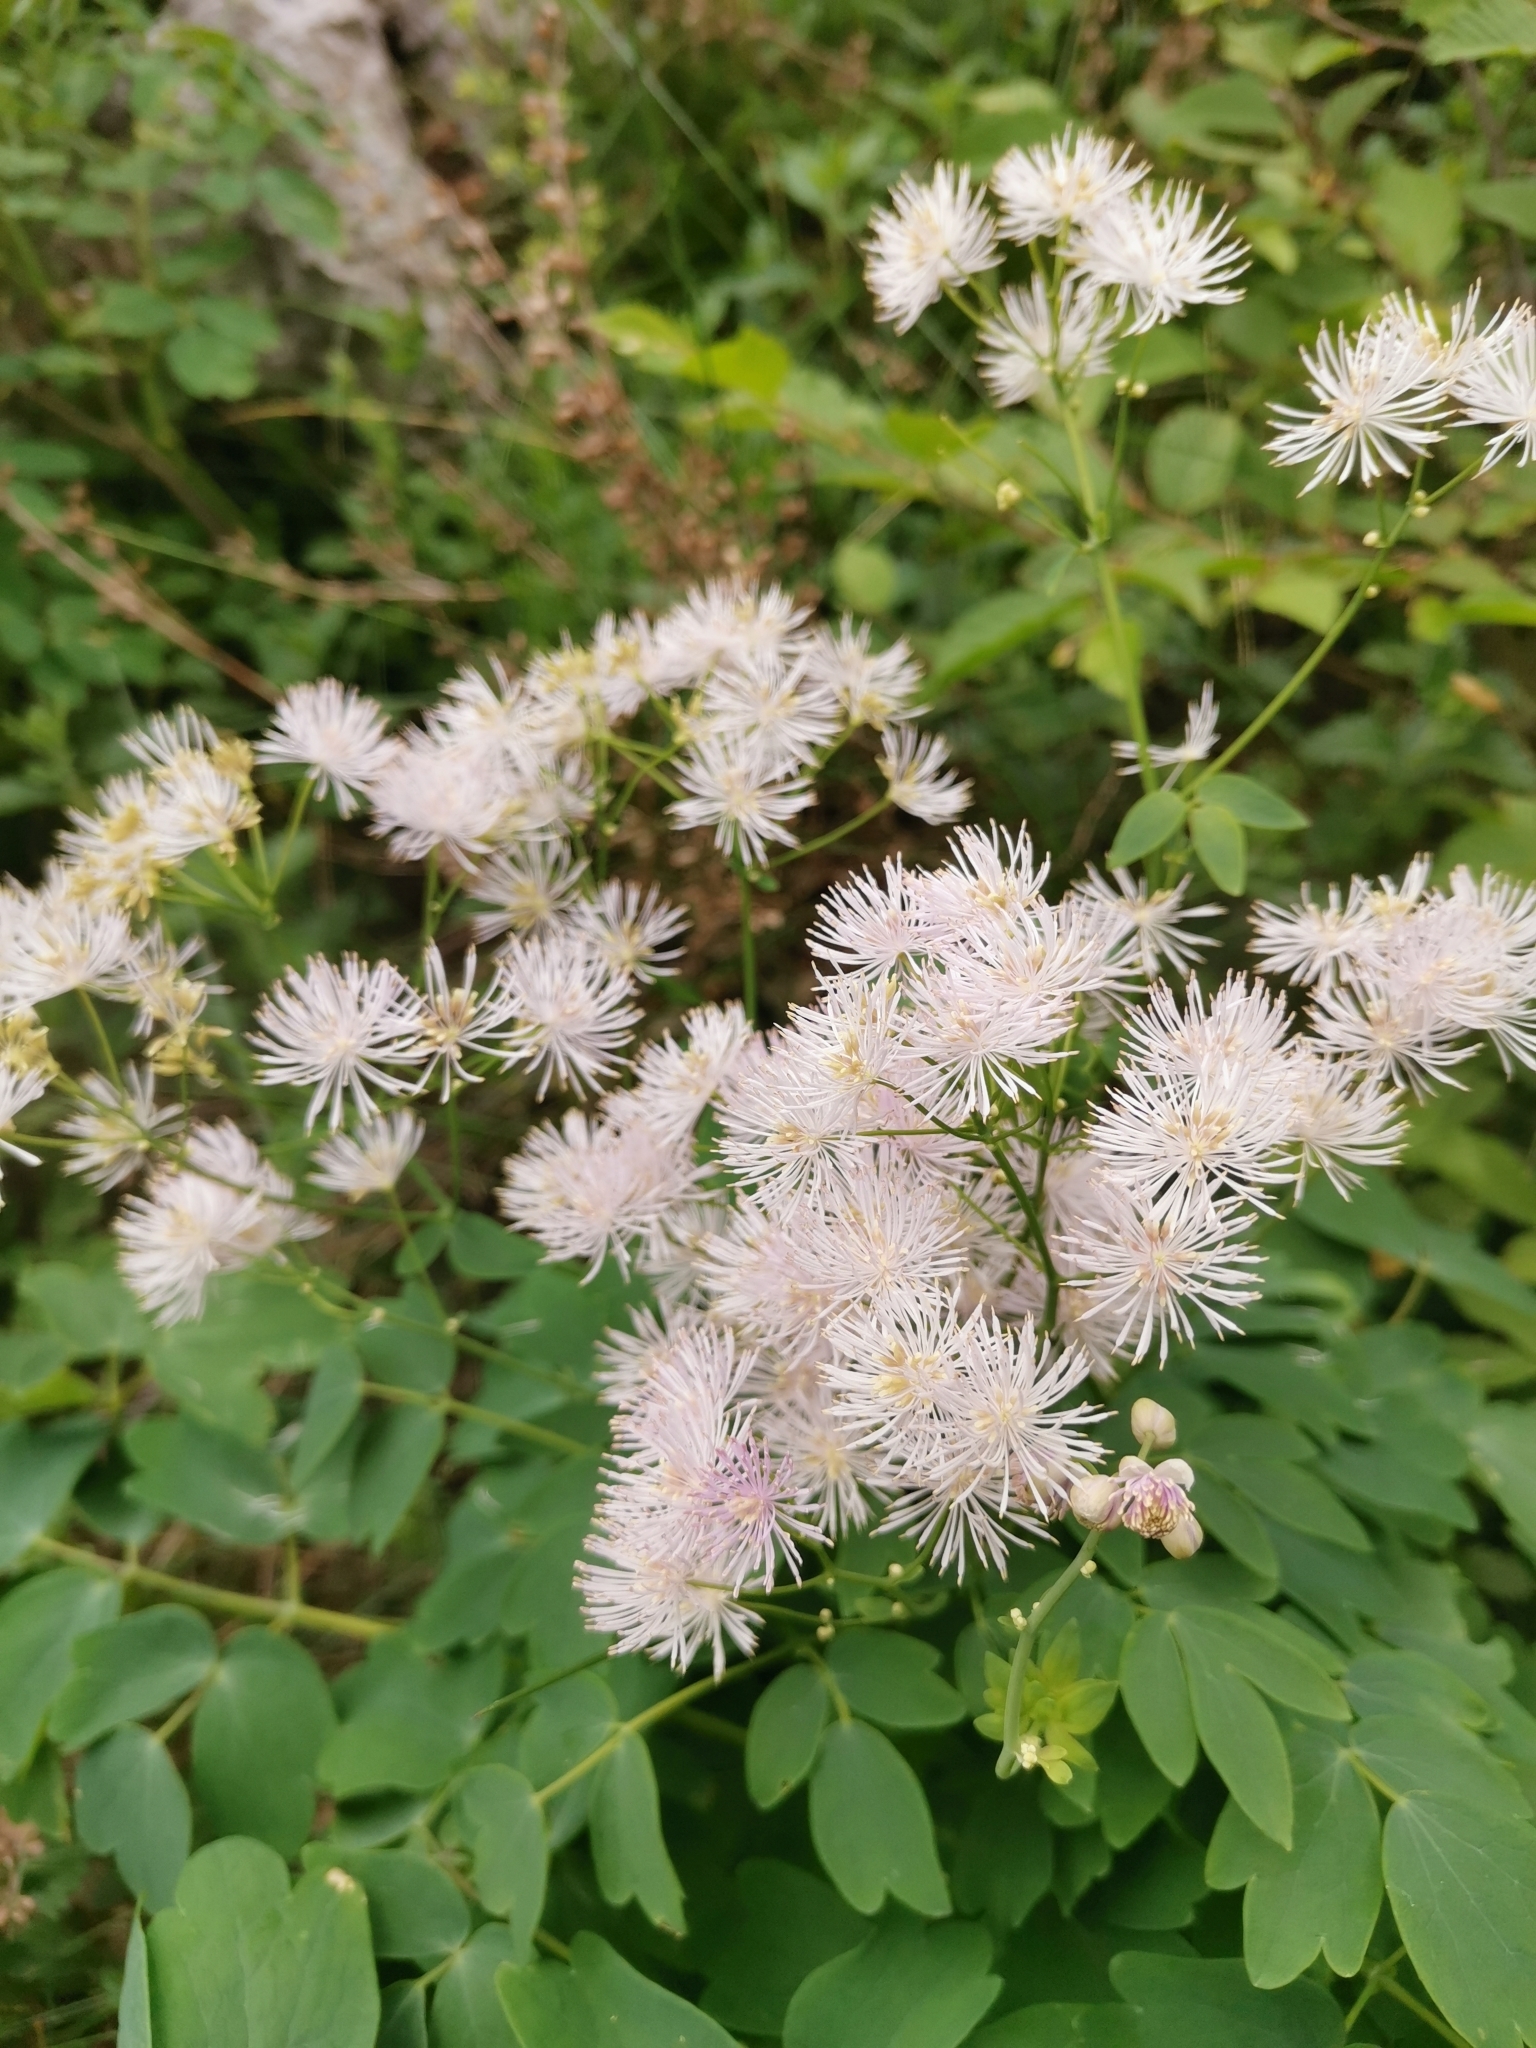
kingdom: Plantae
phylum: Tracheophyta
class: Magnoliopsida
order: Ranunculales
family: Ranunculaceae
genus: Thalictrum
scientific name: Thalictrum aquilegiifolium
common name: French meadow-rue
